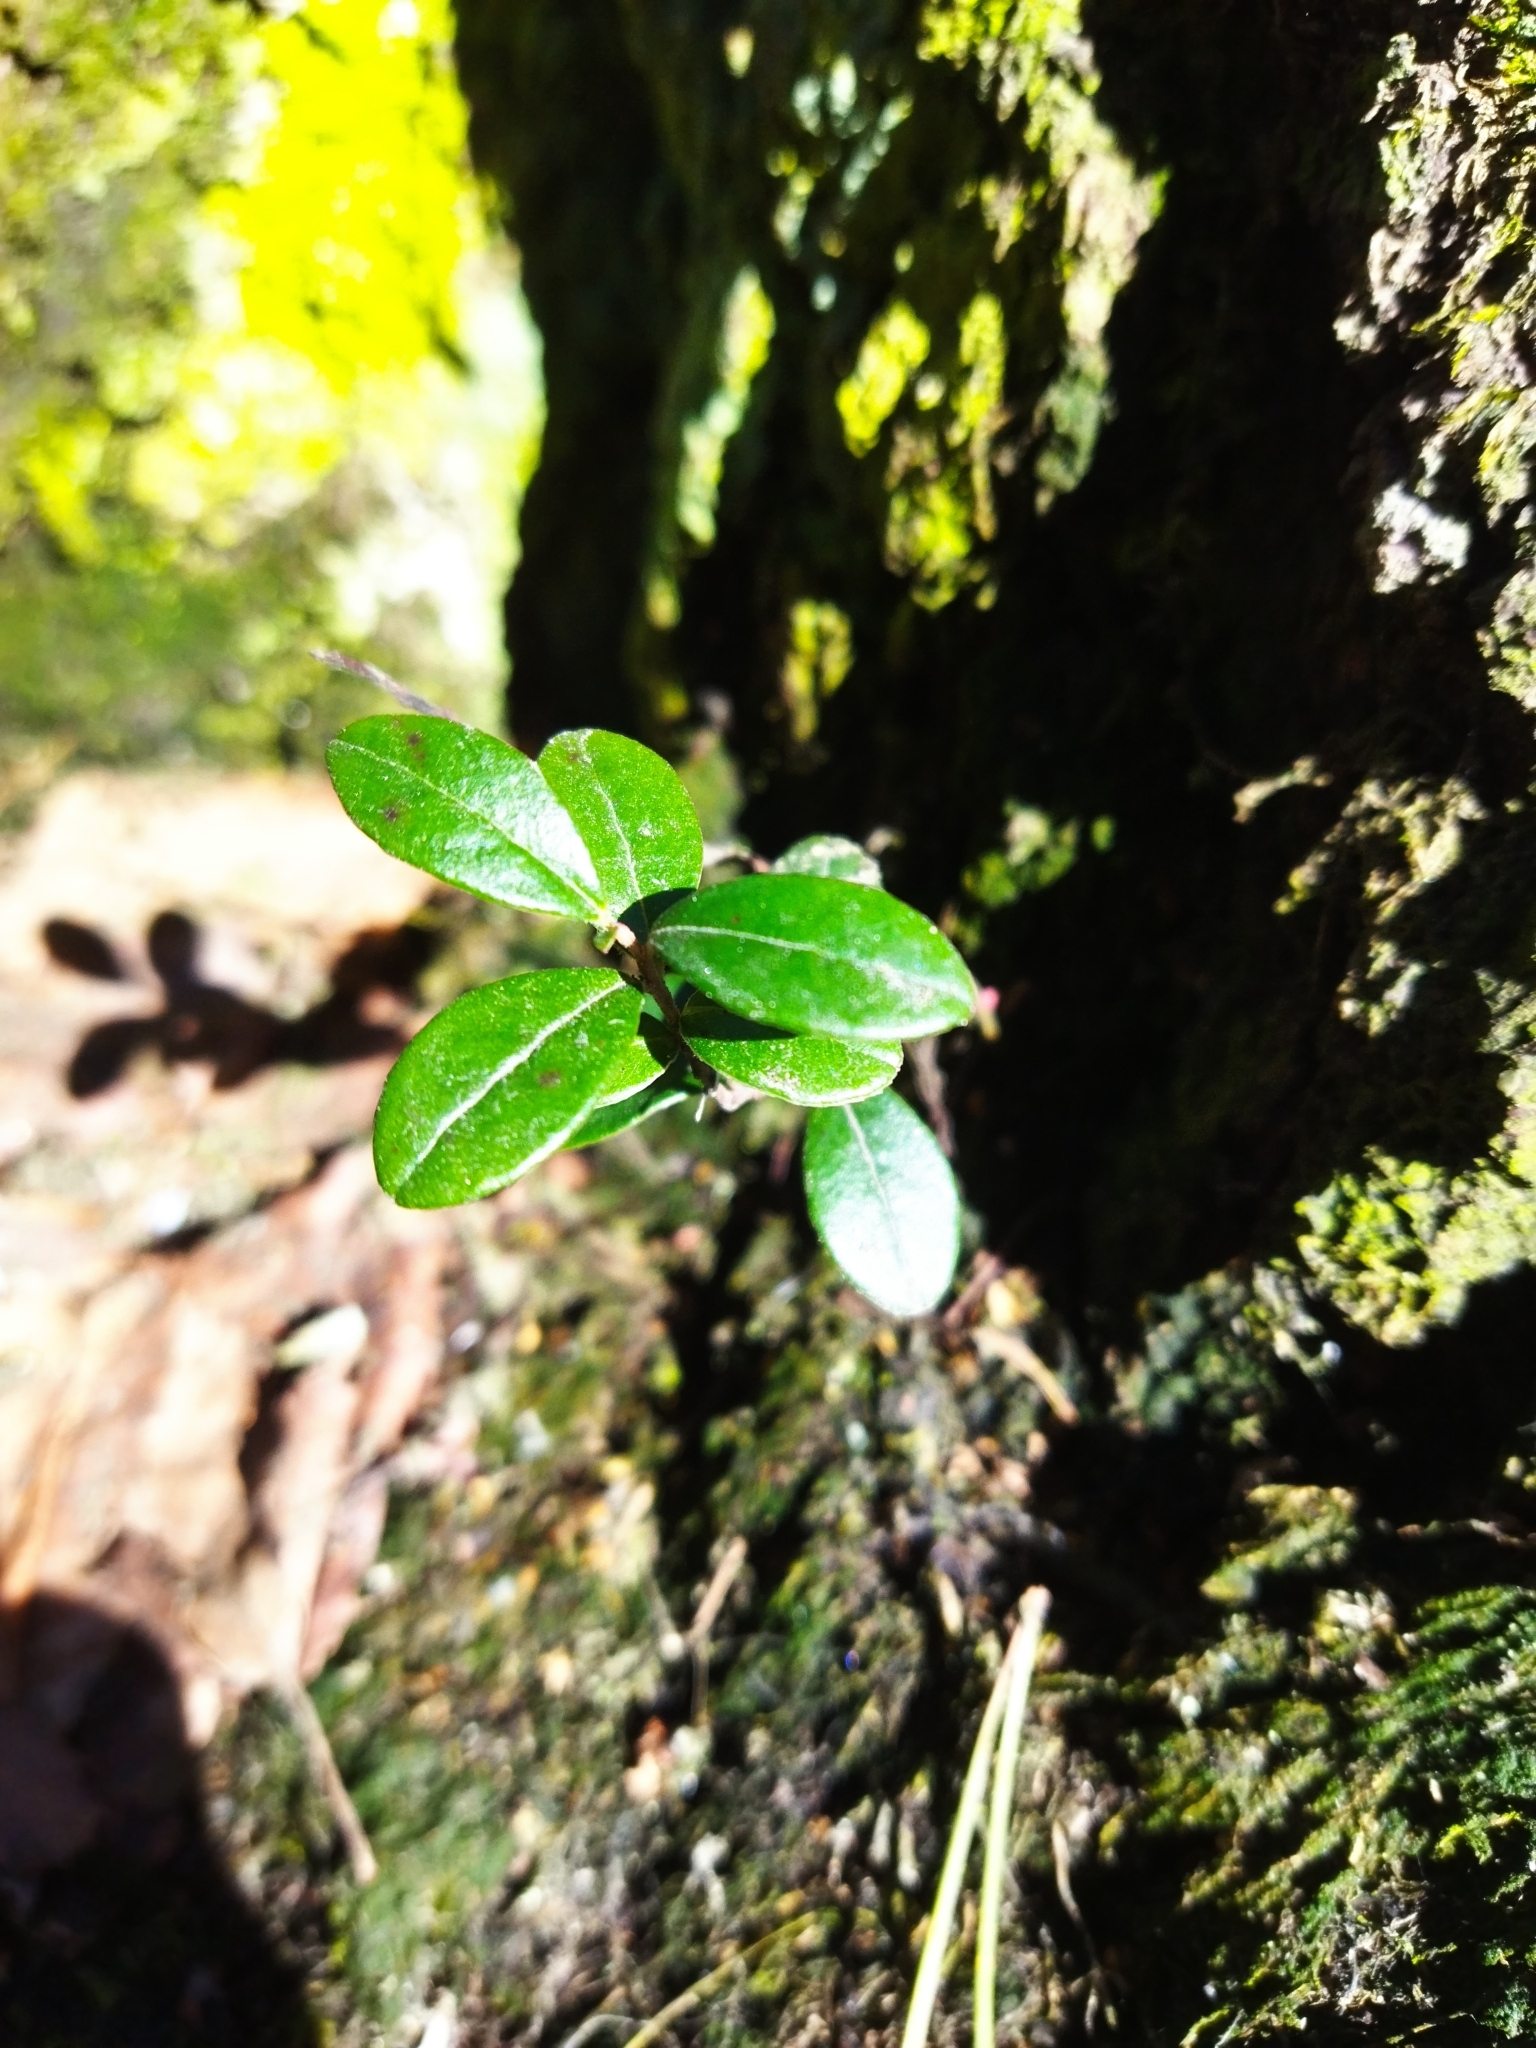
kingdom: Plantae
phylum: Tracheophyta
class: Magnoliopsida
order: Ericales
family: Ericaceae
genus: Vaccinium
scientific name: Vaccinium vitis-idaea
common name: Cowberry
